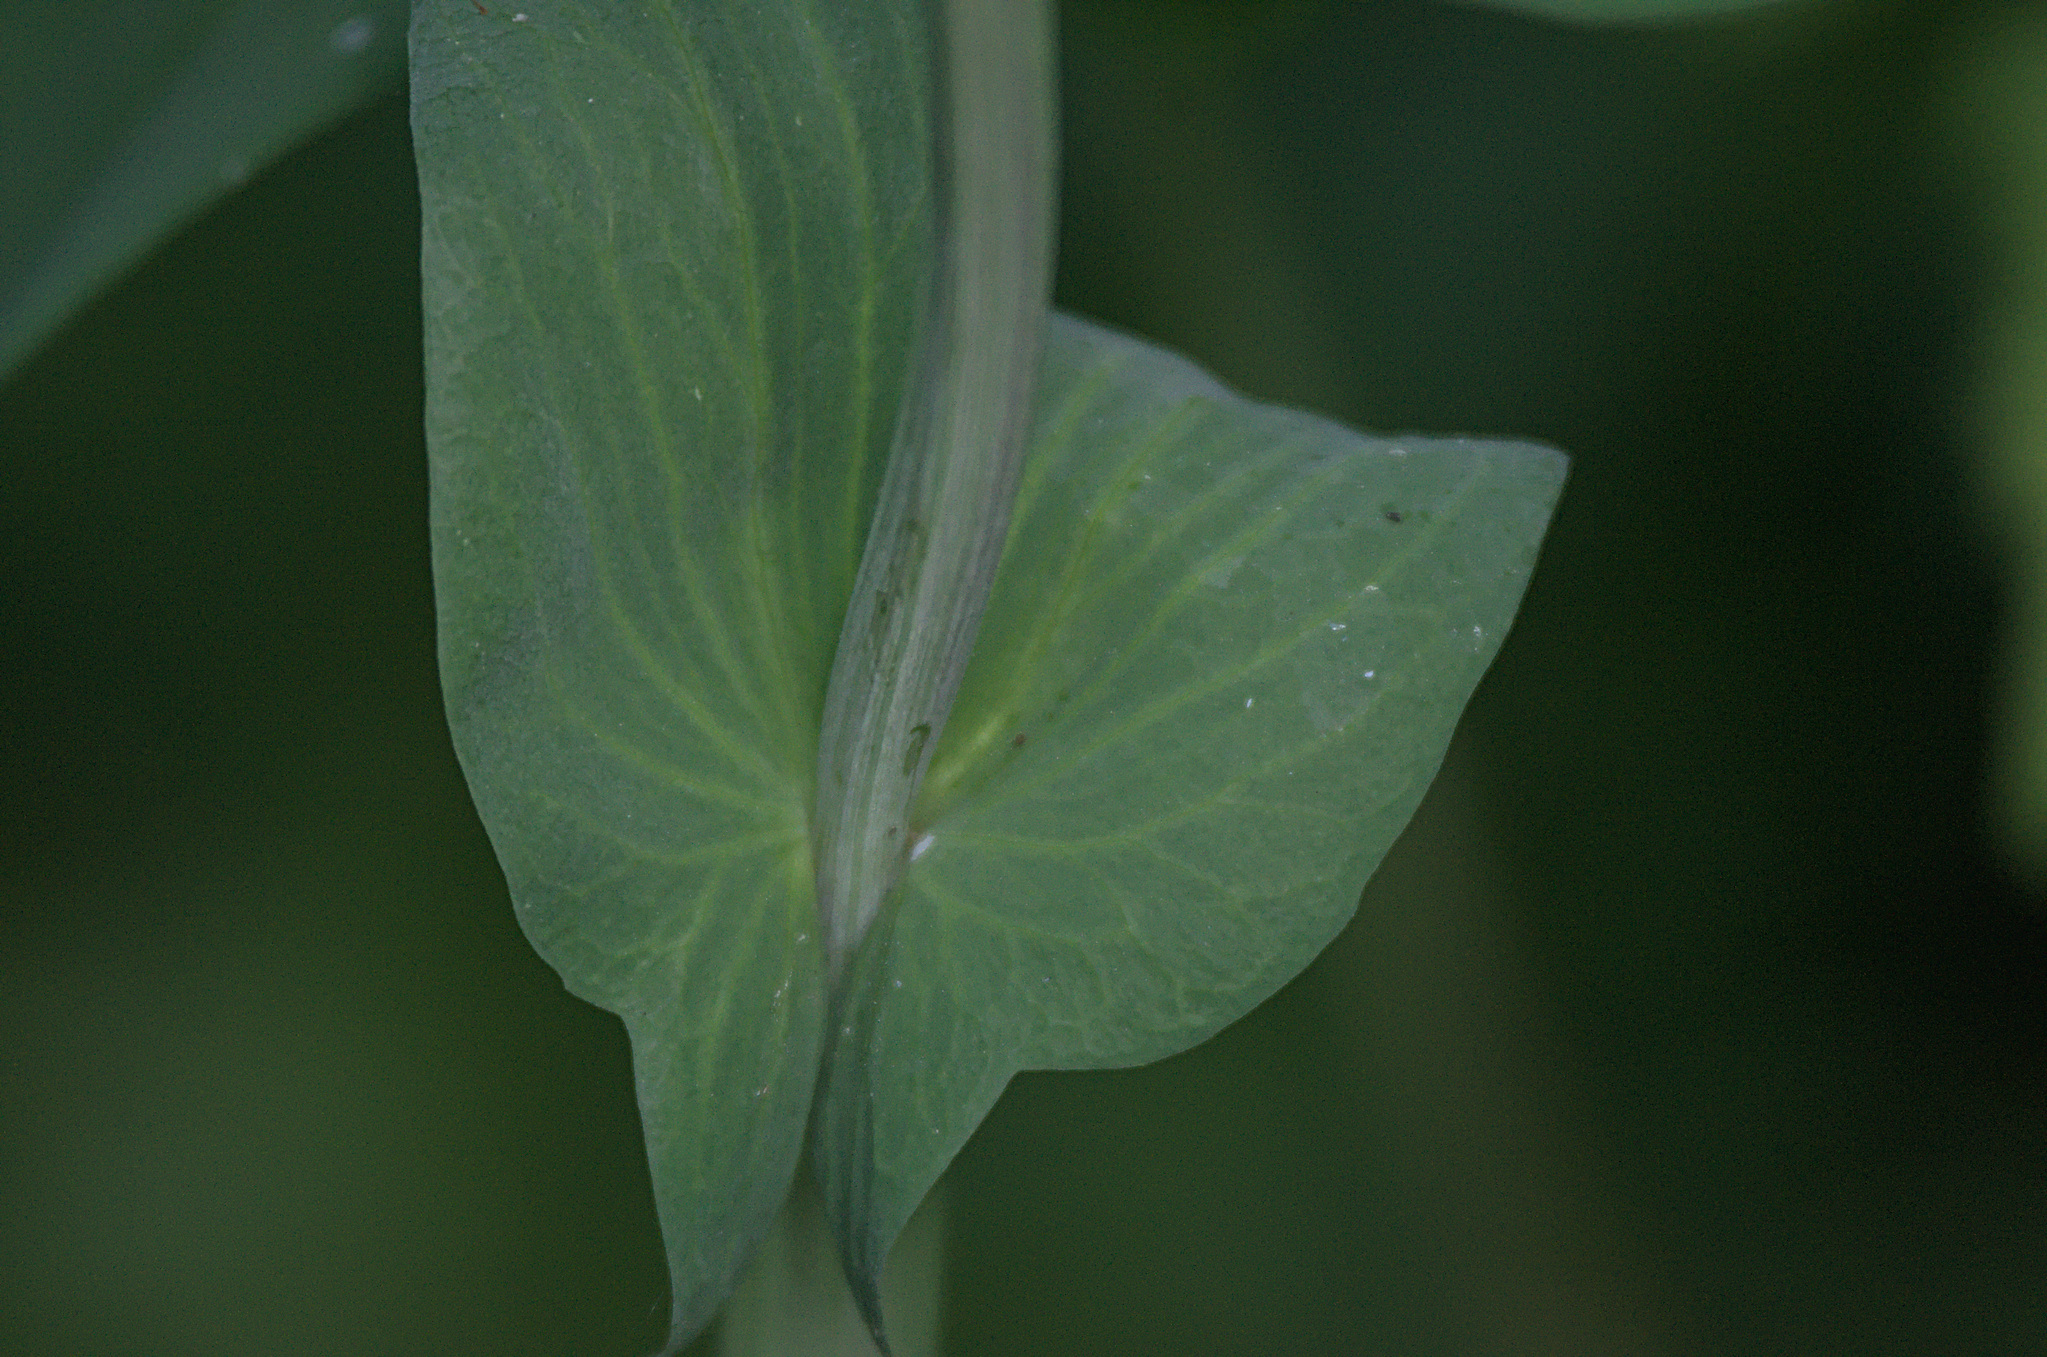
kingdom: Plantae
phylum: Tracheophyta
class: Magnoliopsida
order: Fabales
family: Fabaceae
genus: Lathyrus
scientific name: Lathyrus gmelinii
